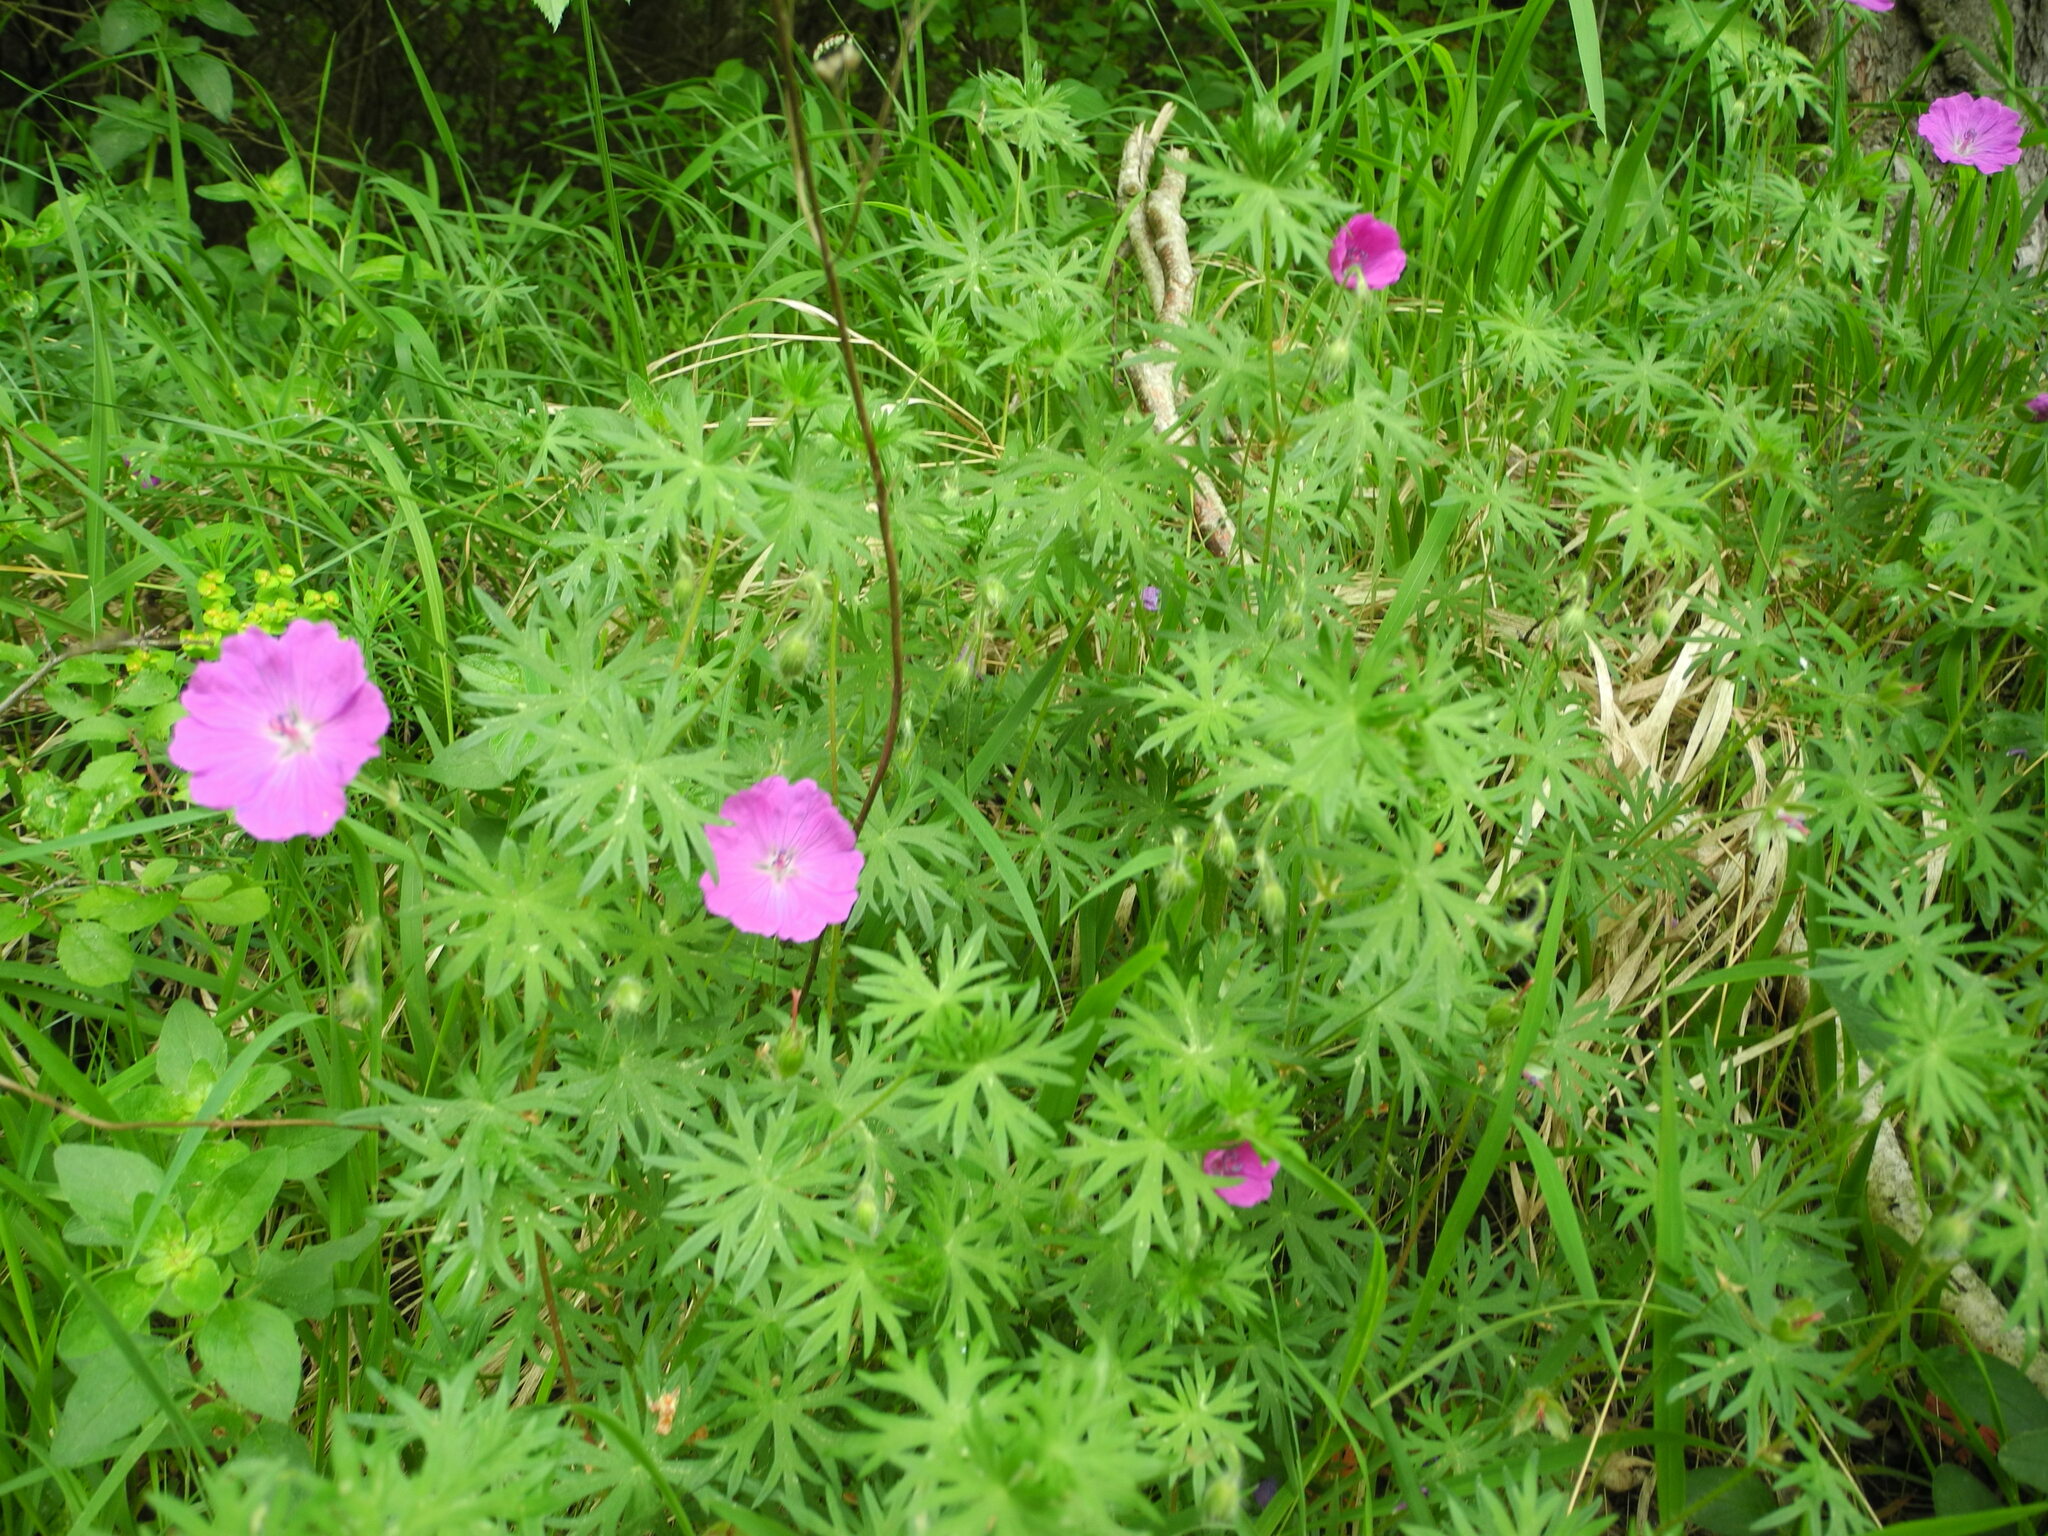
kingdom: Plantae
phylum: Tracheophyta
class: Magnoliopsida
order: Geraniales
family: Geraniaceae
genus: Geranium
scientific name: Geranium sanguineum
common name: Bloody crane's-bill
